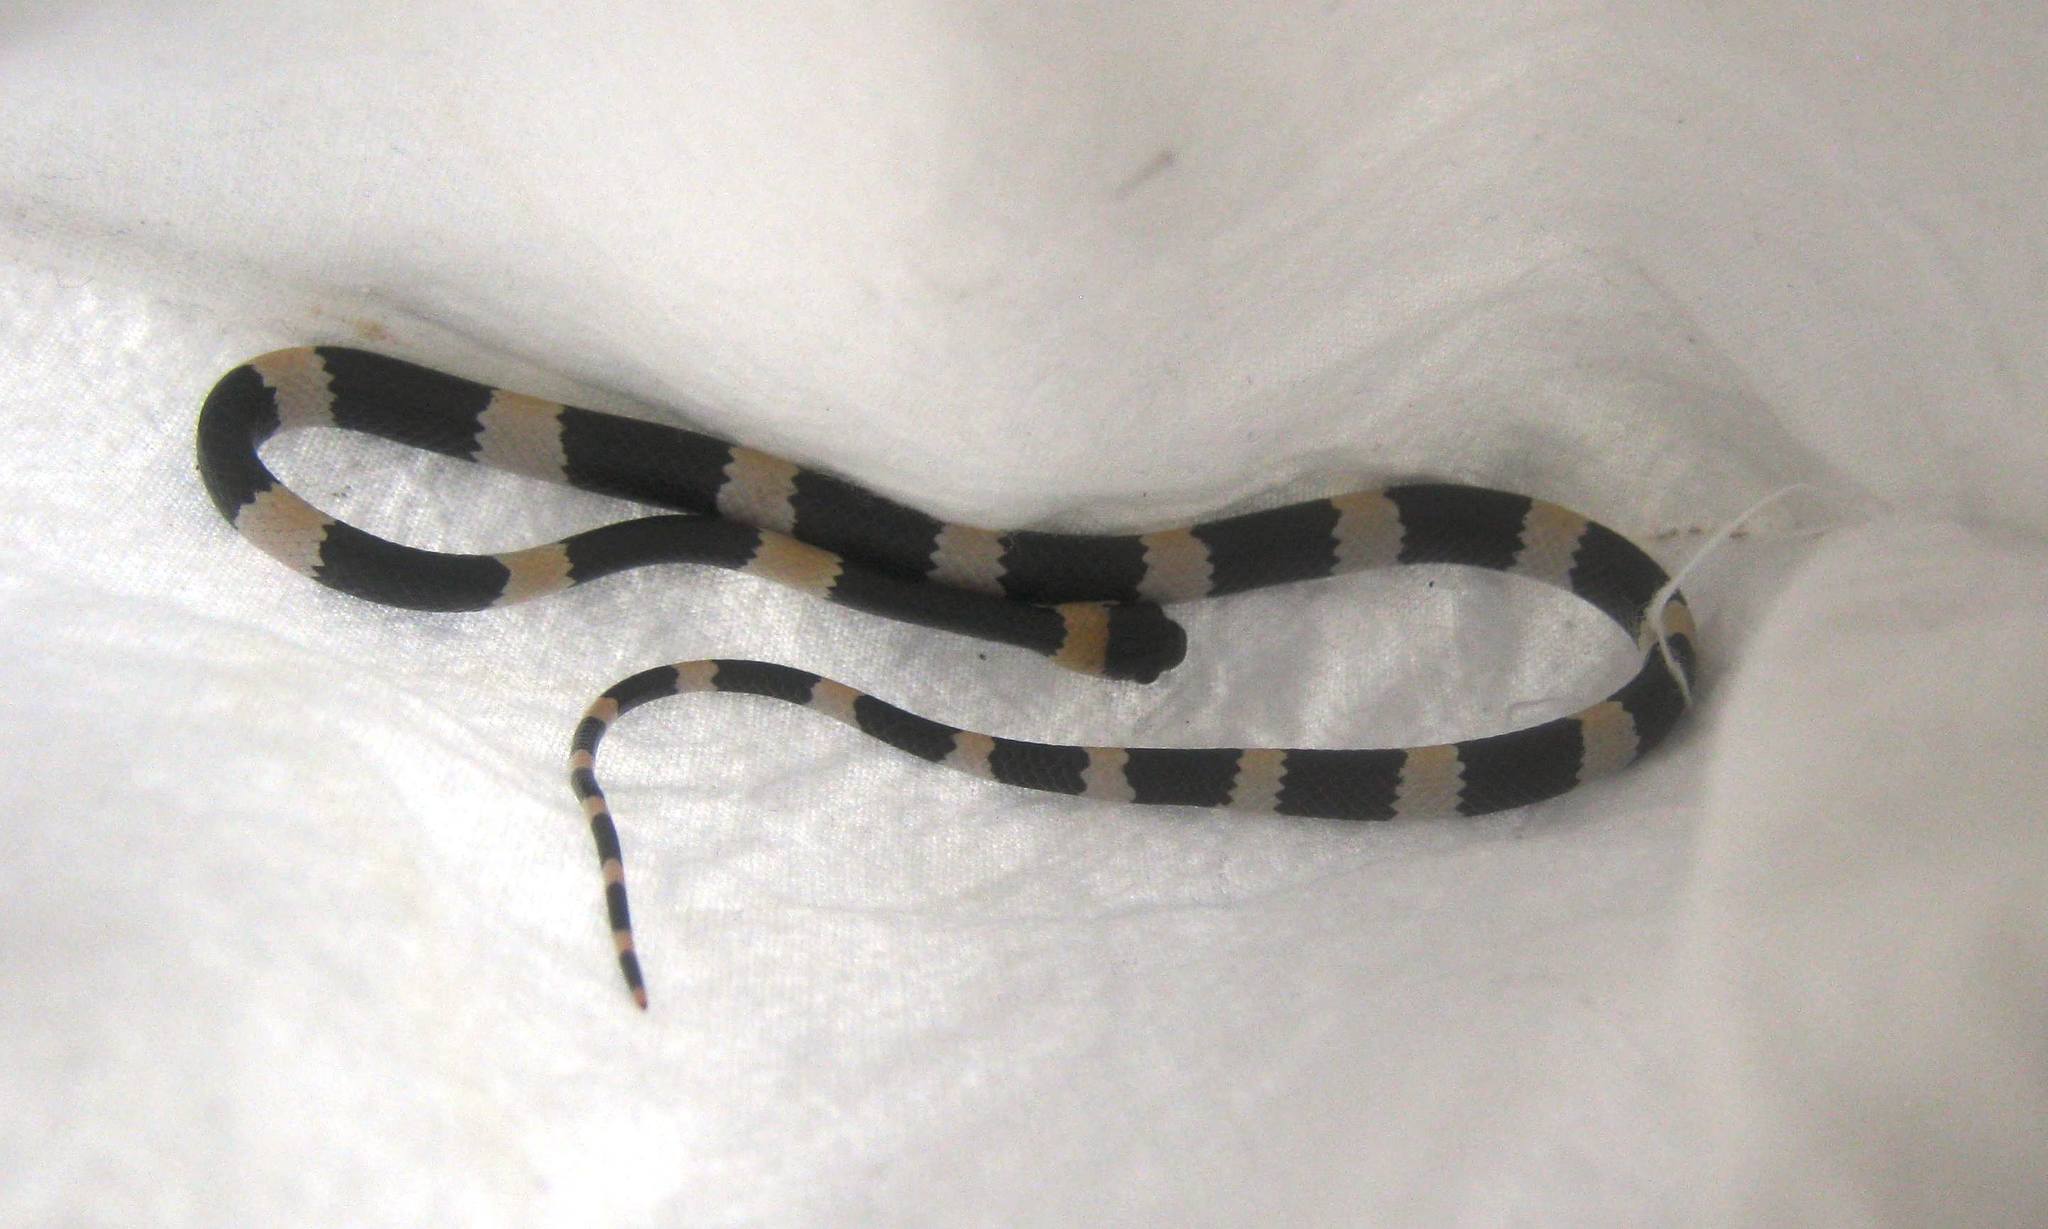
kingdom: Animalia
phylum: Chordata
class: Squamata
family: Colubridae
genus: Dipsas
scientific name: Dipsas brevifacies
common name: Snail-eating thirst snake
